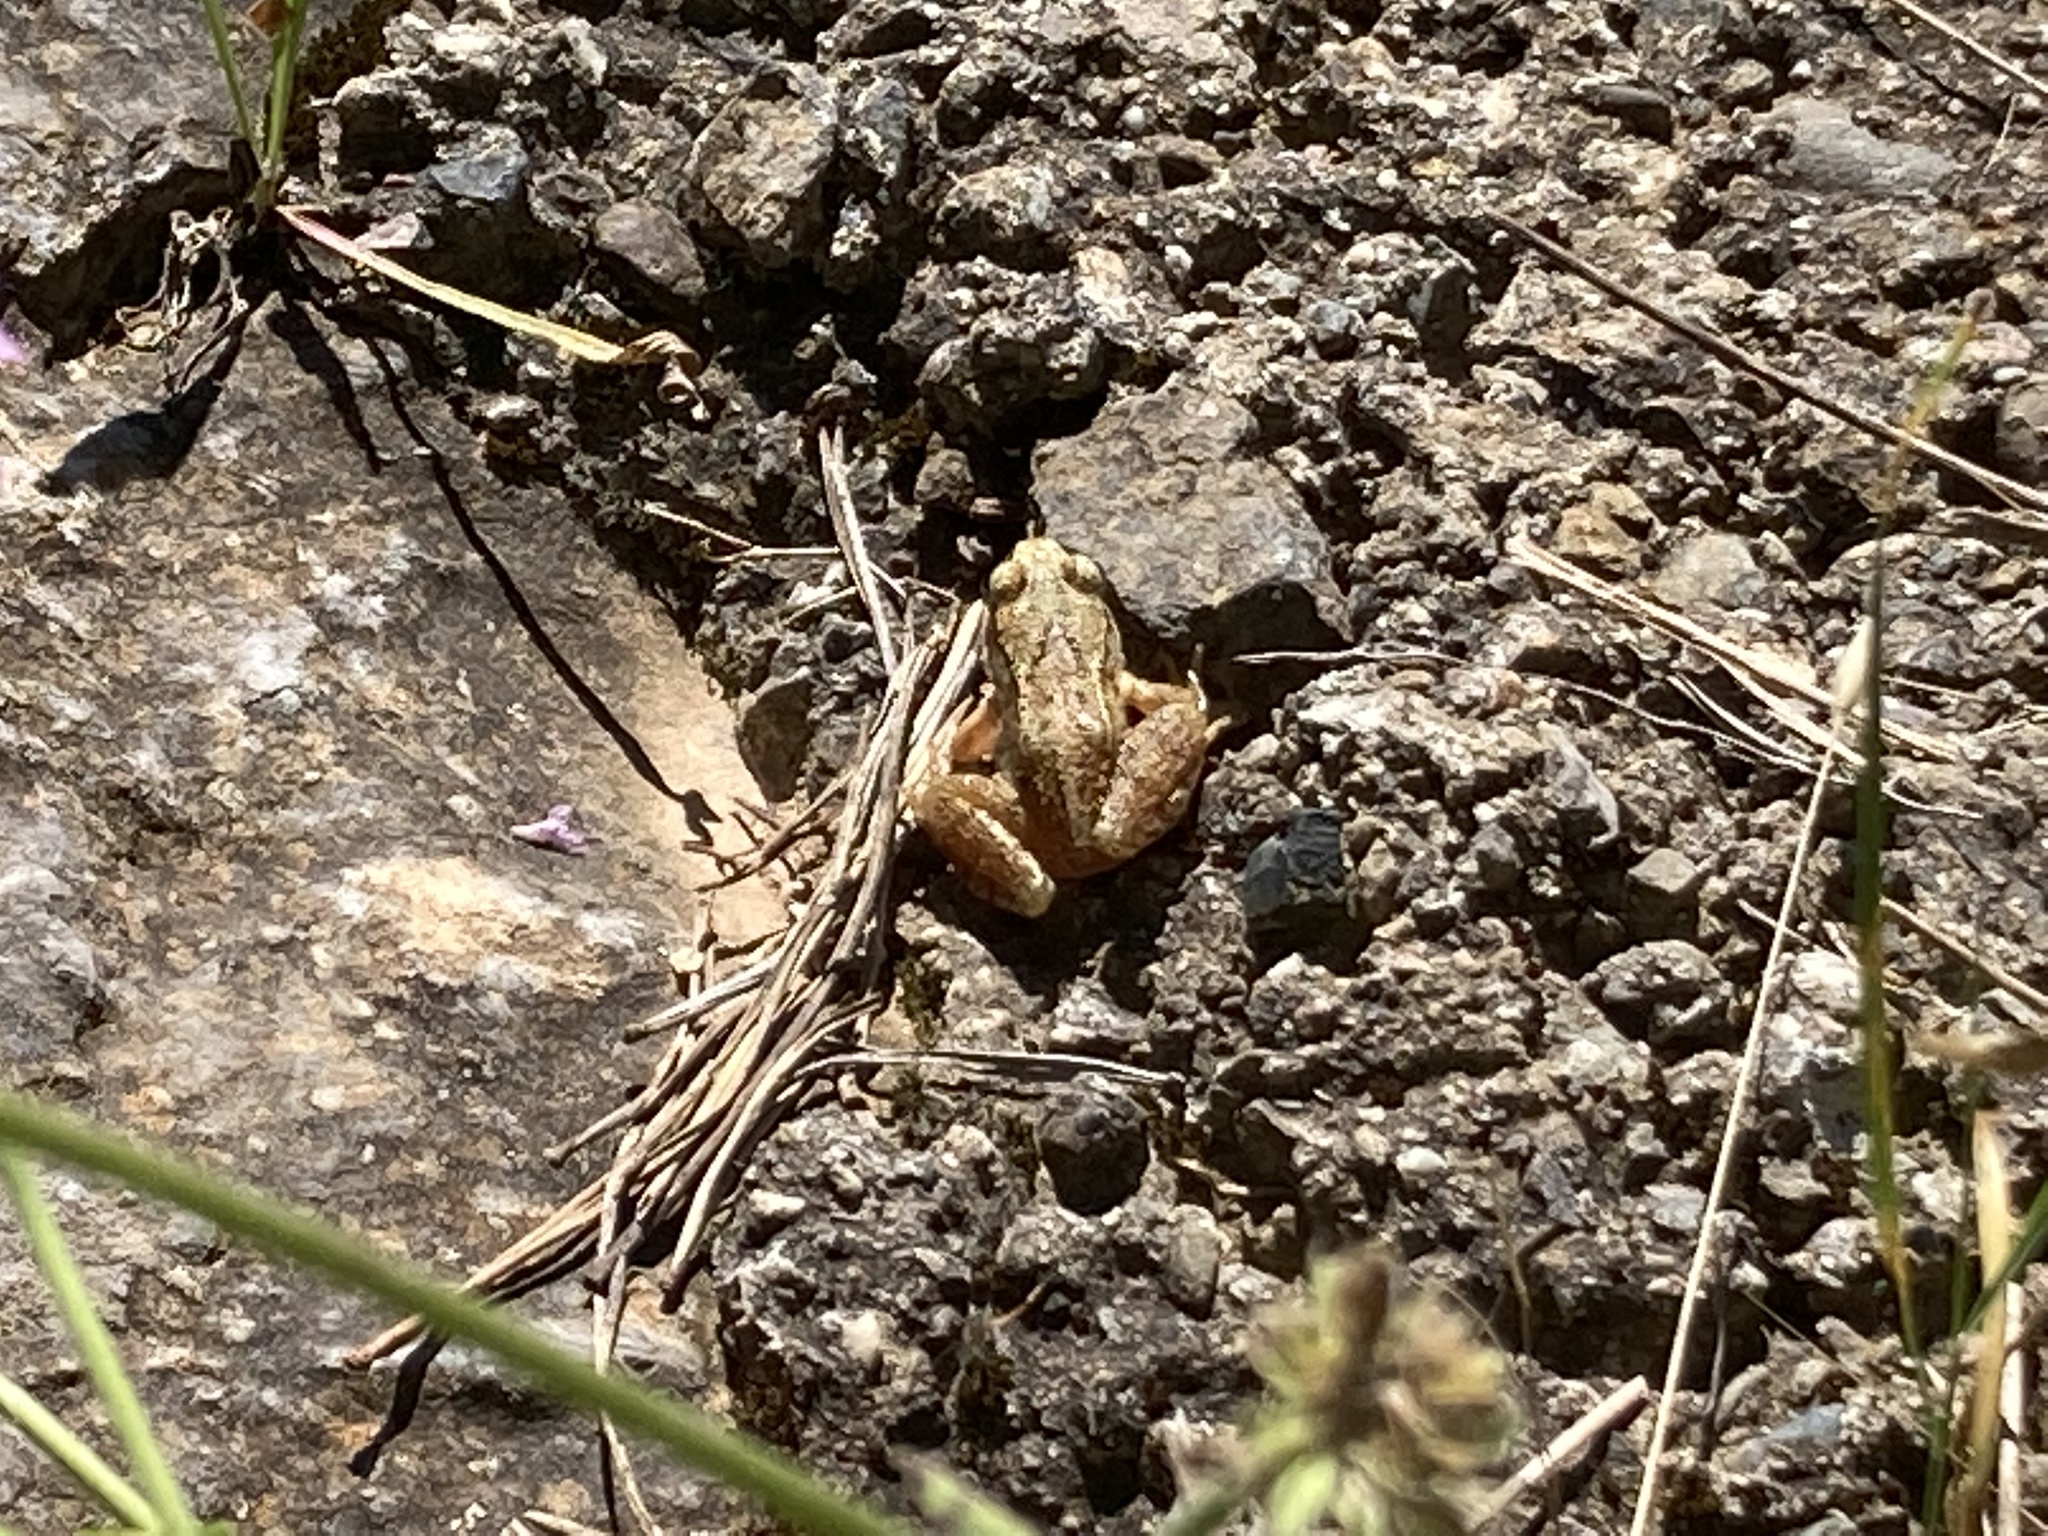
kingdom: Animalia
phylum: Chordata
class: Amphibia
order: Anura
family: Ranidae
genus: Rana
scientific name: Rana temporaria
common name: Common frog
